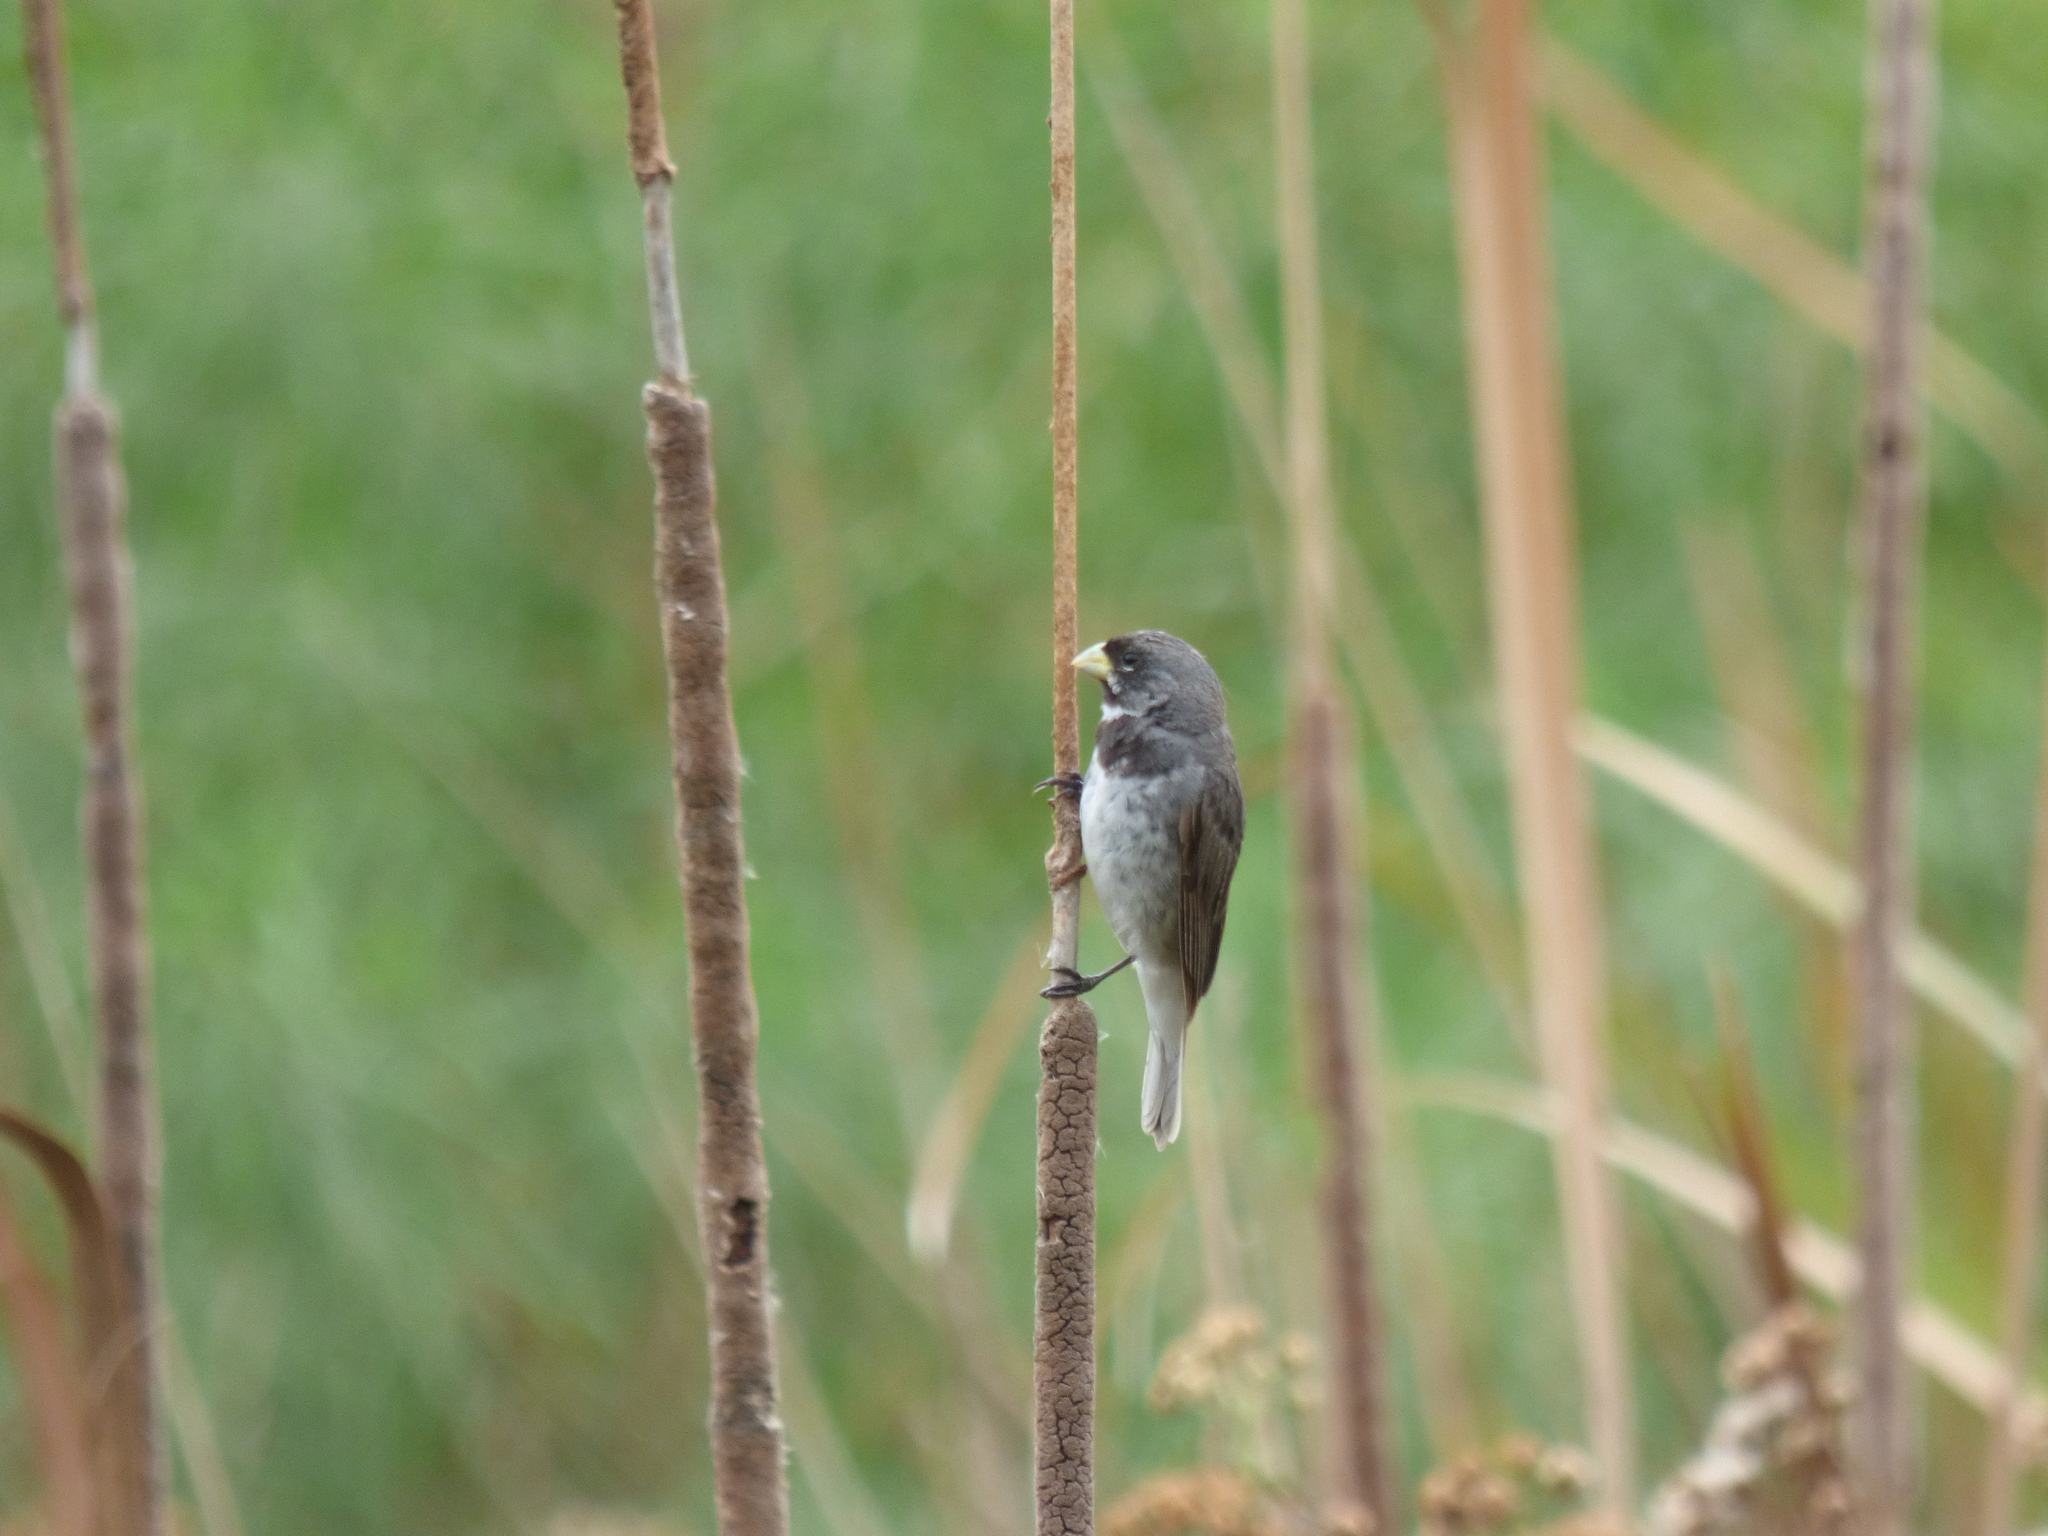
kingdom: Animalia
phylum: Chordata
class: Aves
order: Passeriformes
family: Thraupidae
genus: Sporophila
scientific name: Sporophila caerulescens
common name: Double-collared seedeater
